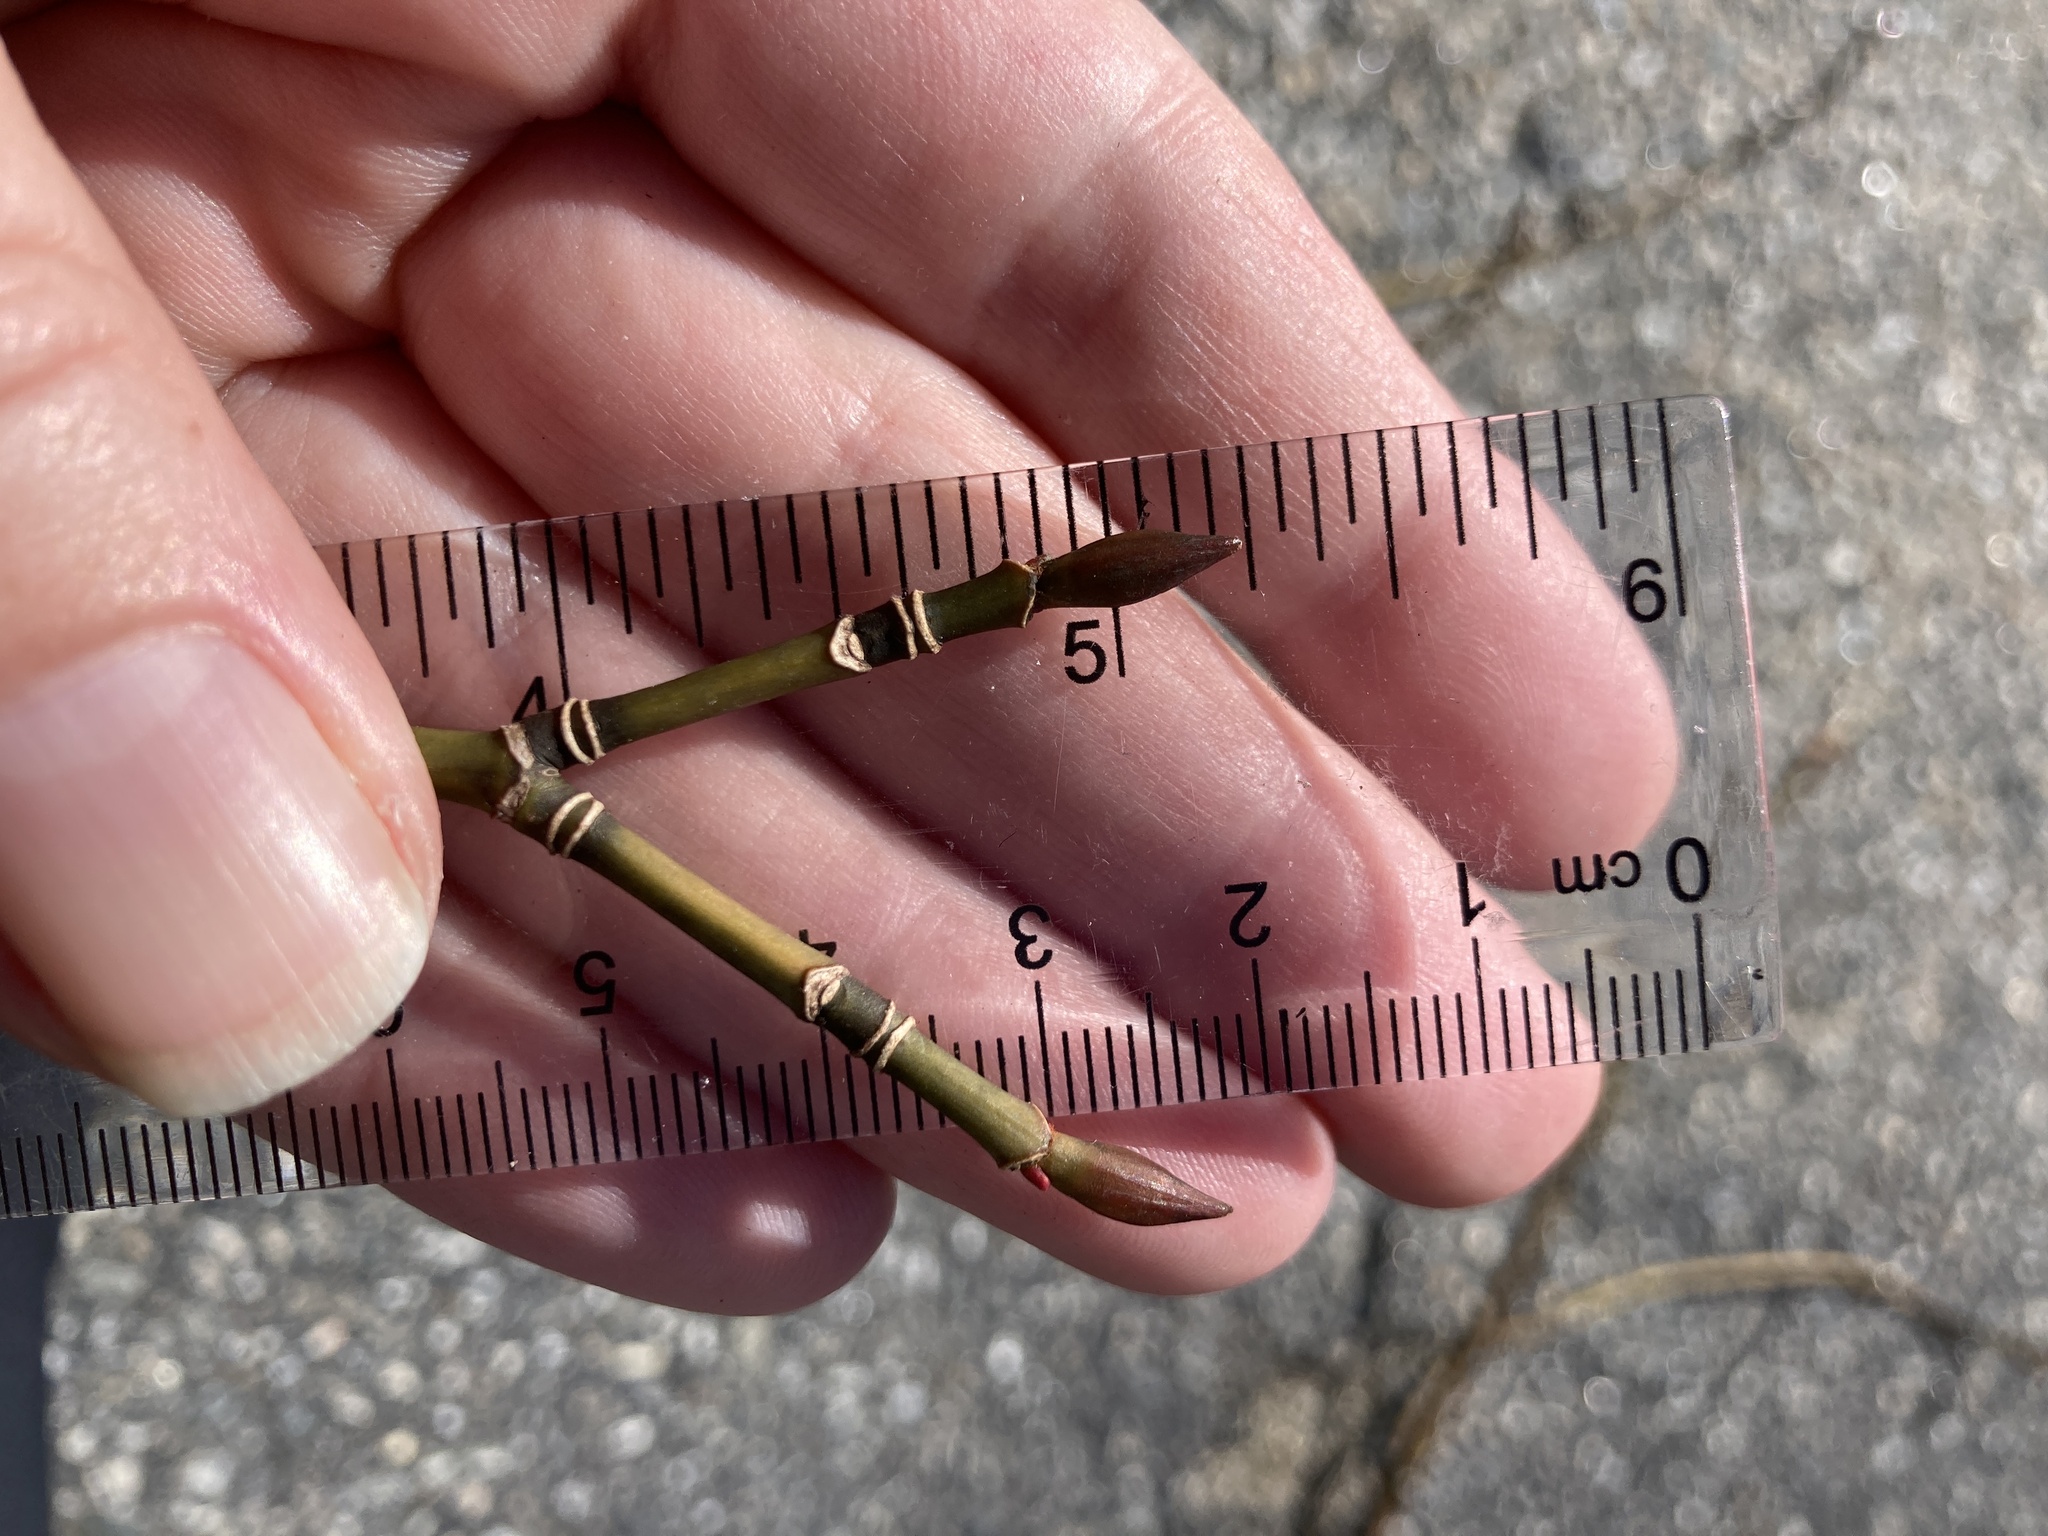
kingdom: Plantae
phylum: Tracheophyta
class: Magnoliopsida
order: Sapindales
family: Sapindaceae
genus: Acer
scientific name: Acer pensylvanicum
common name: Moosewood
